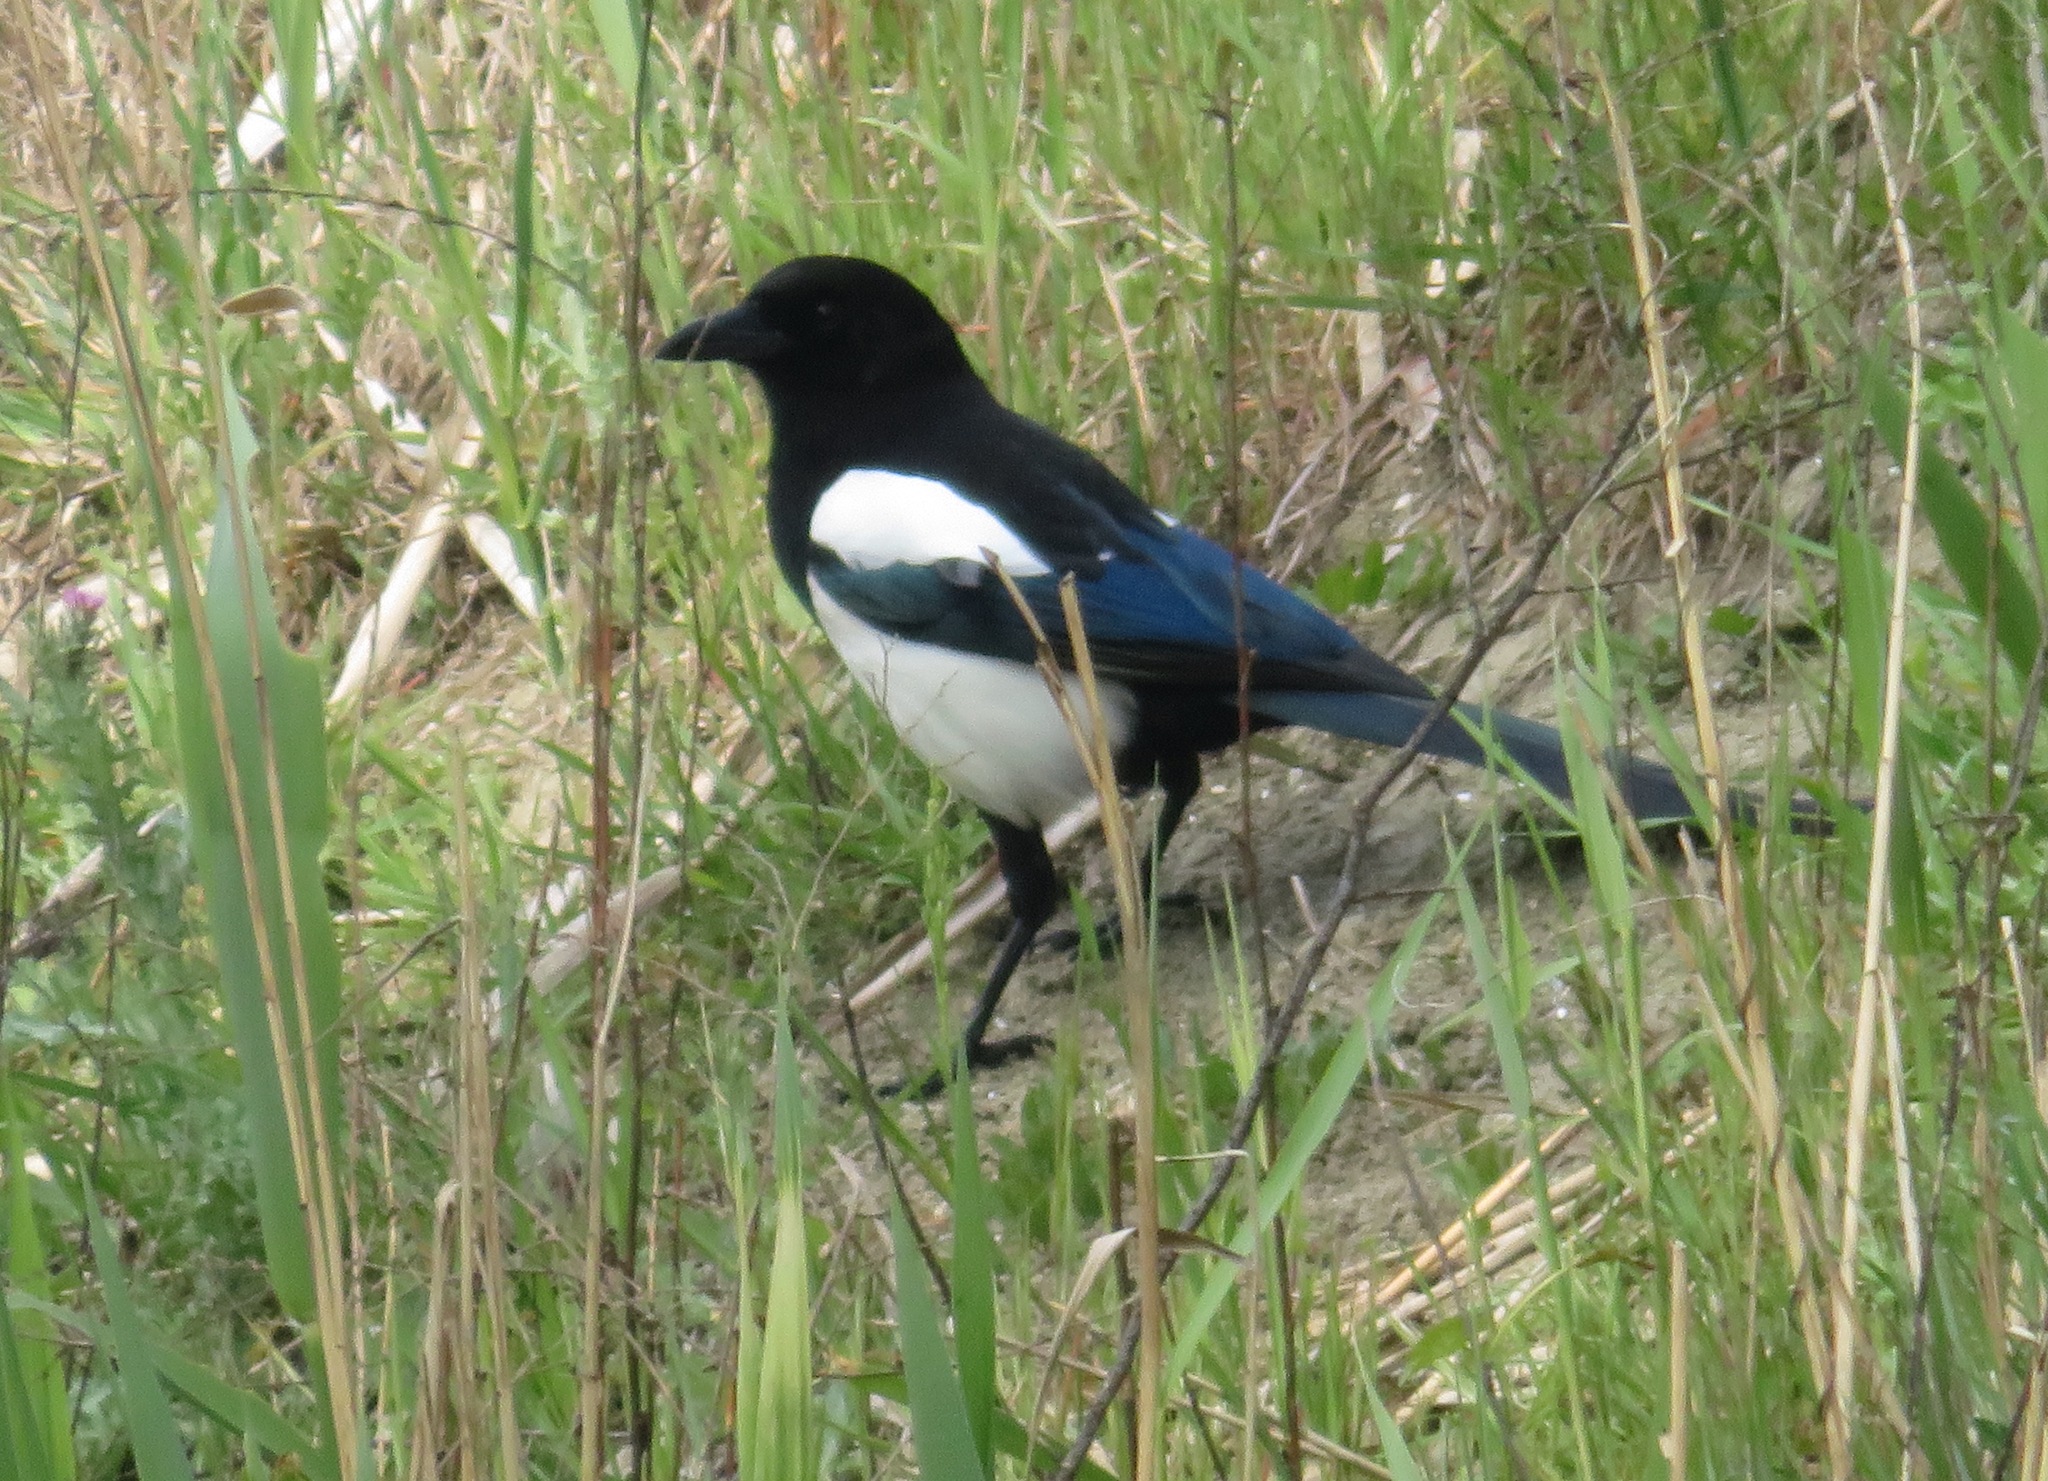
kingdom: Animalia
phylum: Chordata
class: Aves
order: Passeriformes
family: Corvidae
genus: Pica
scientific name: Pica pica
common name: Eurasian magpie
